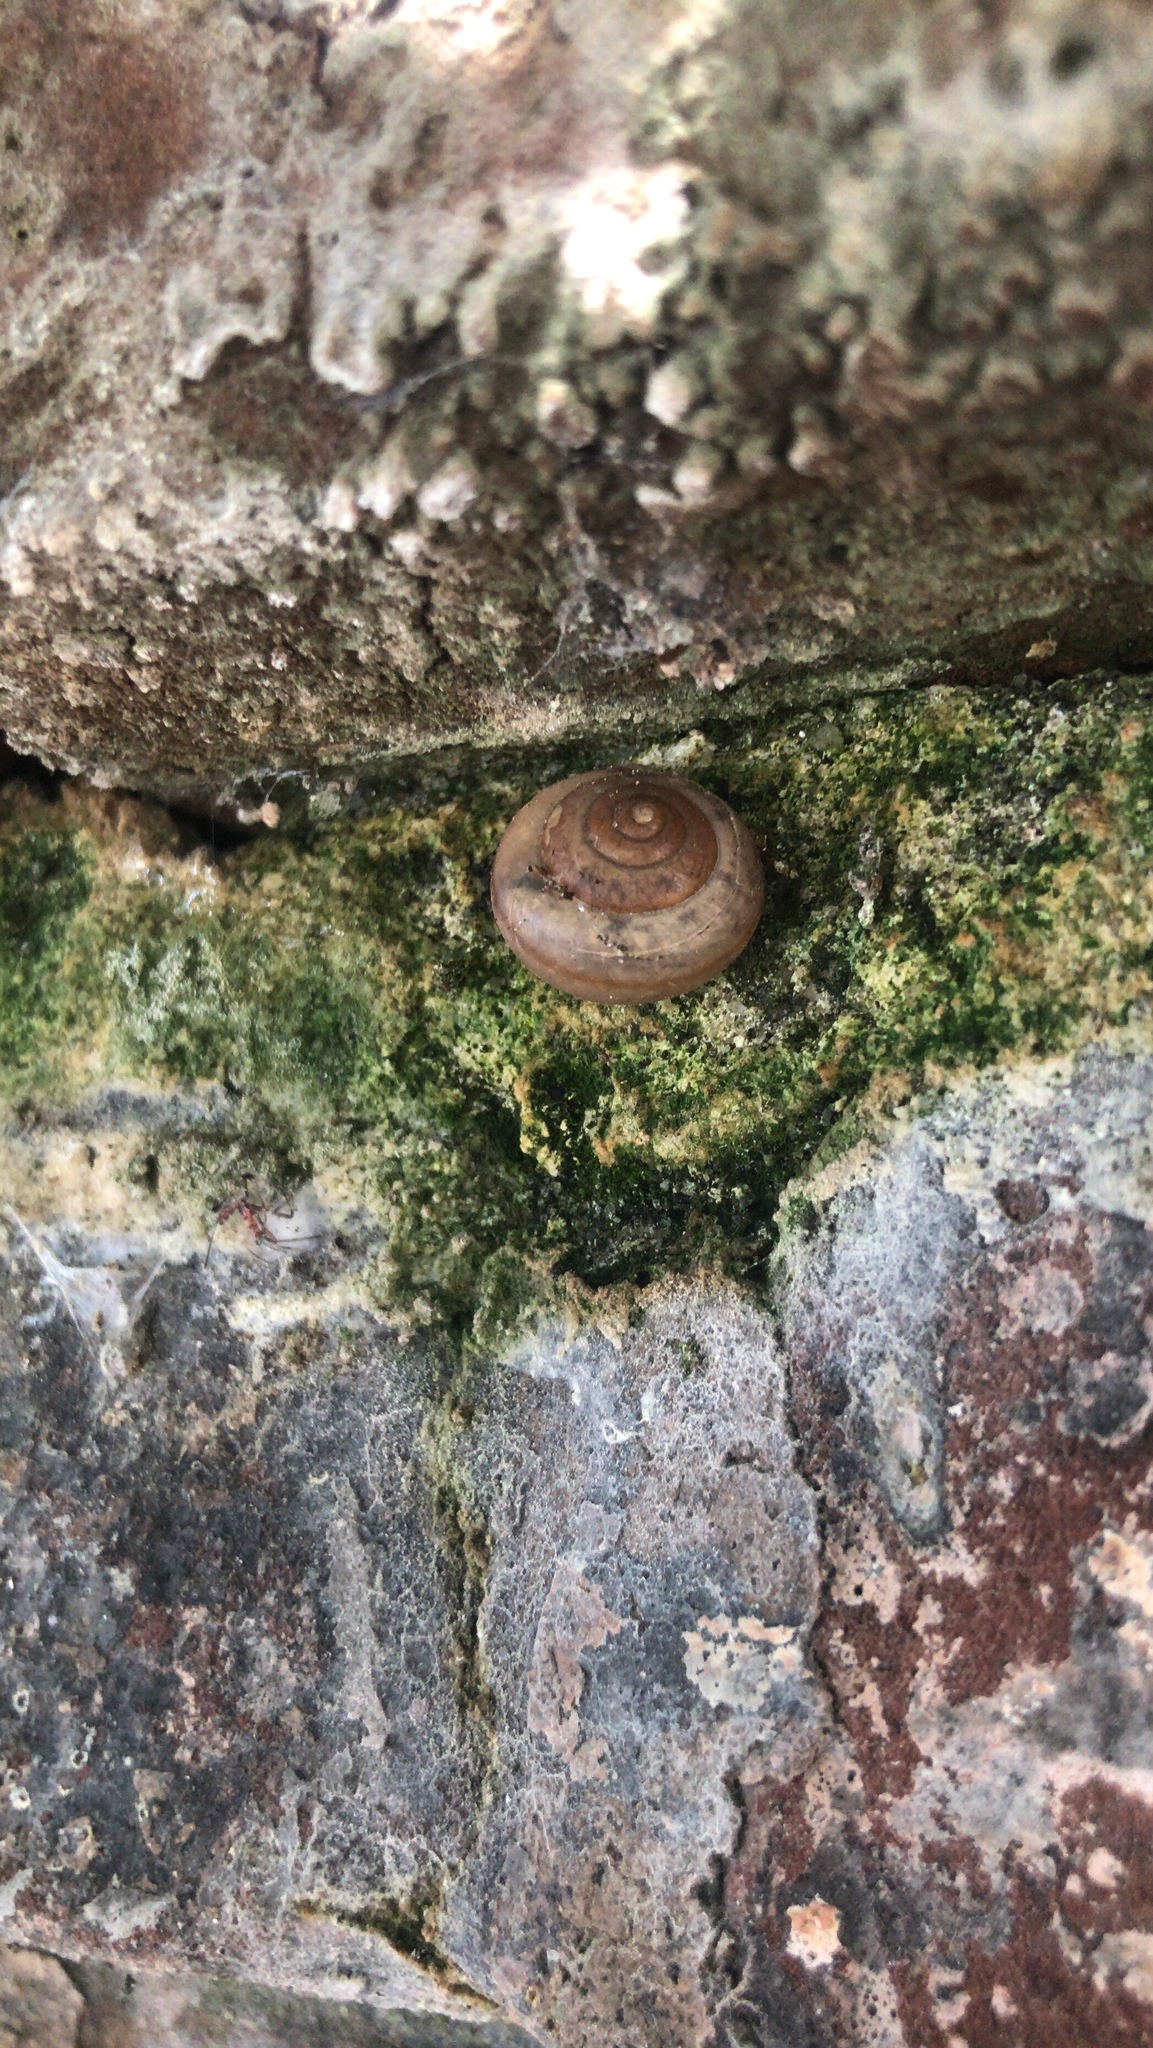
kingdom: Animalia
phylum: Mollusca
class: Gastropoda
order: Stylommatophora
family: Camaenidae
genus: Bradybaena
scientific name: Bradybaena similaris
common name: Asian trampsnail
